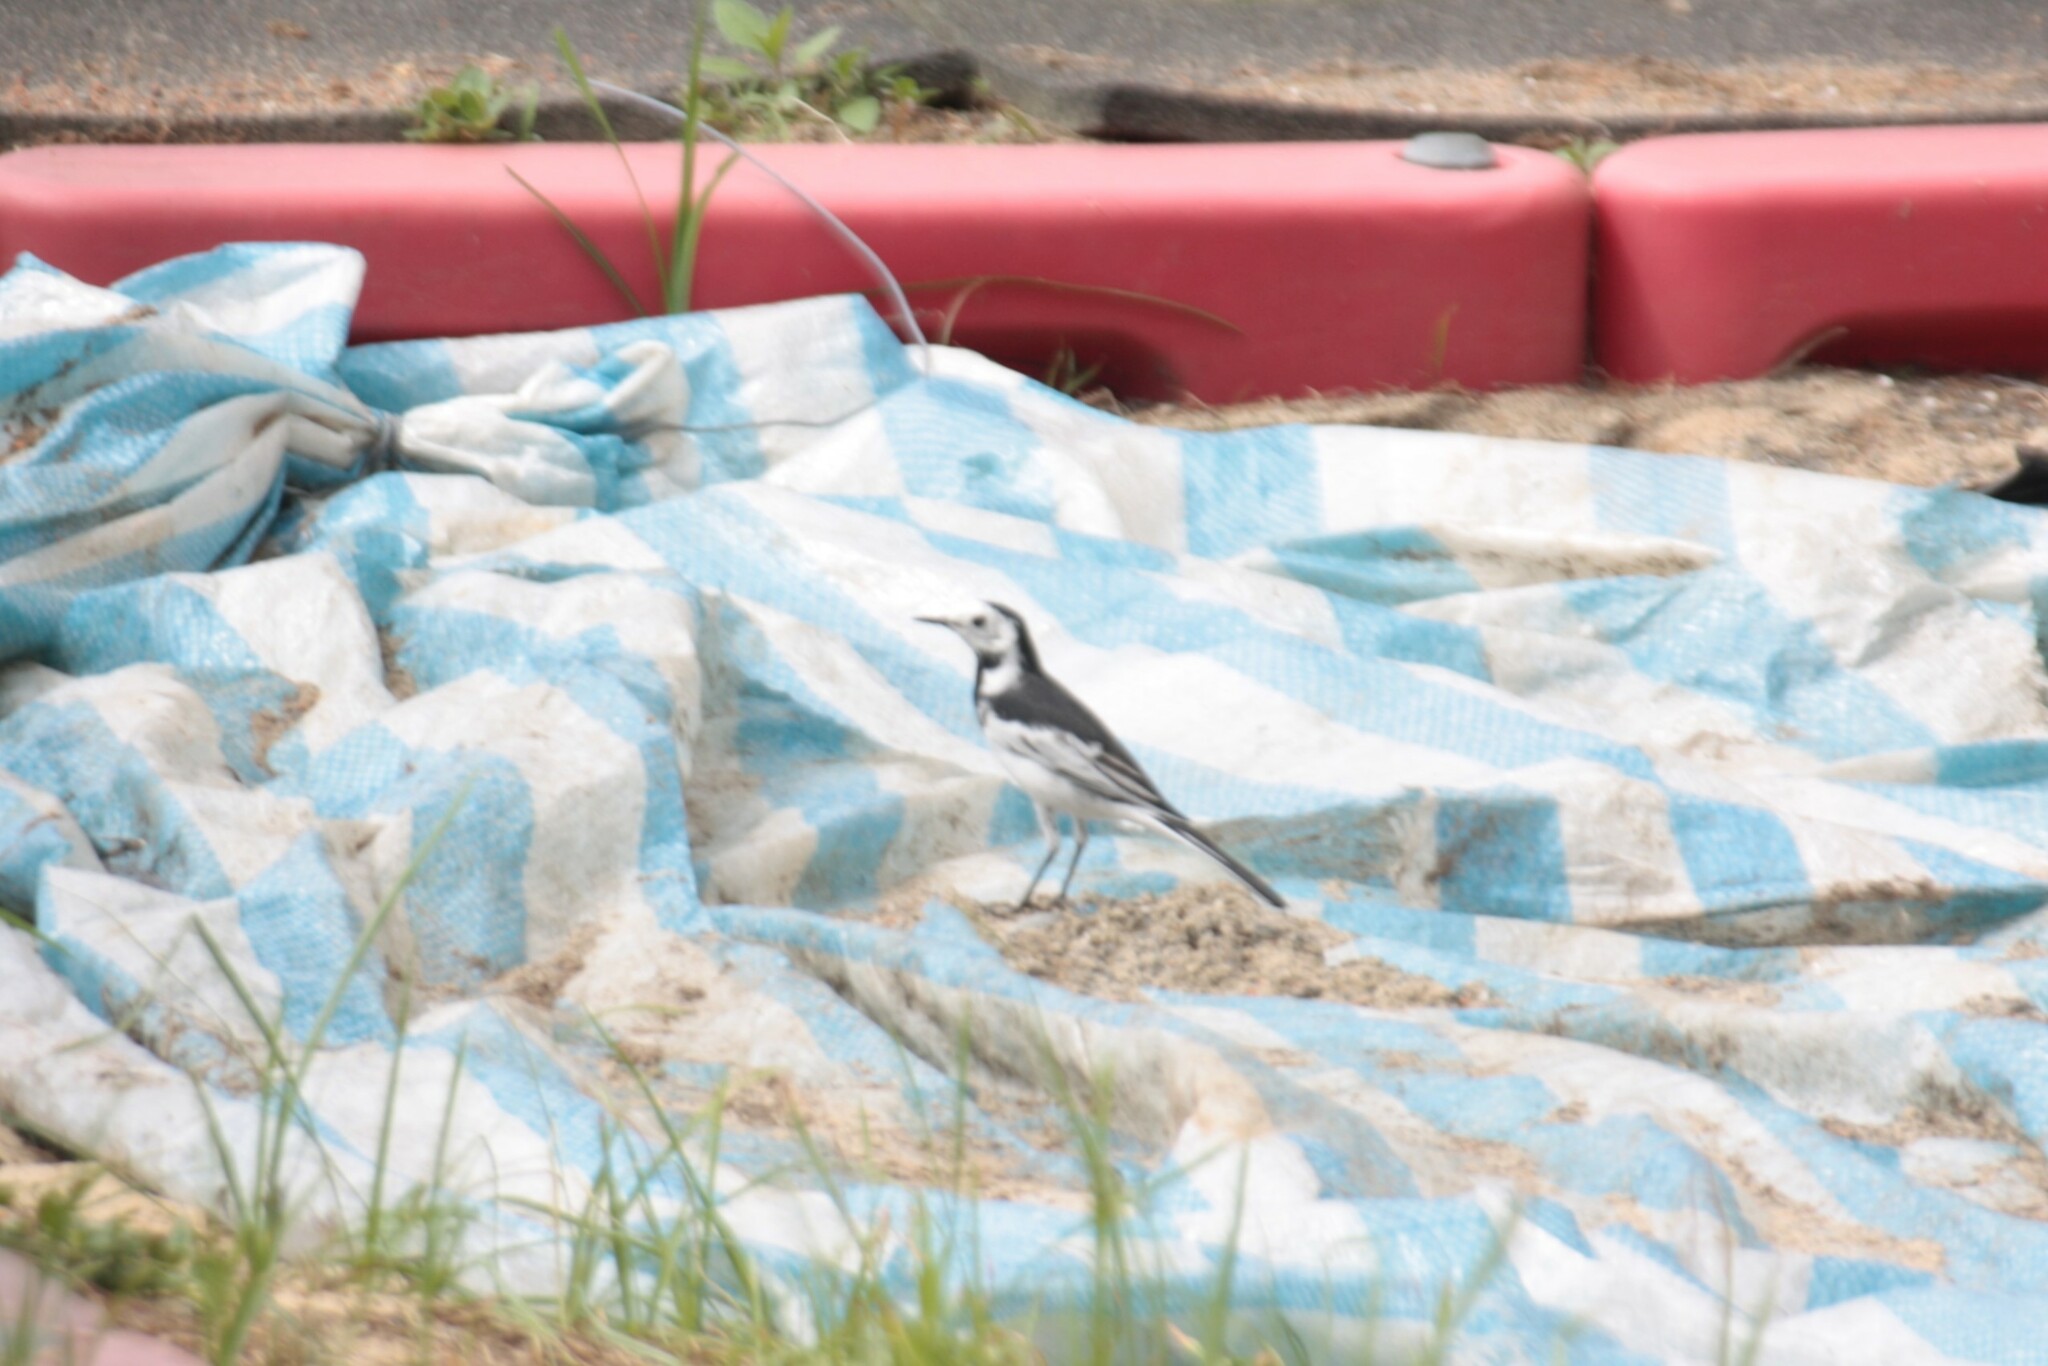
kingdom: Animalia
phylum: Chordata
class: Aves
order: Passeriformes
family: Motacillidae
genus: Motacilla
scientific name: Motacilla alba
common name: White wagtail
